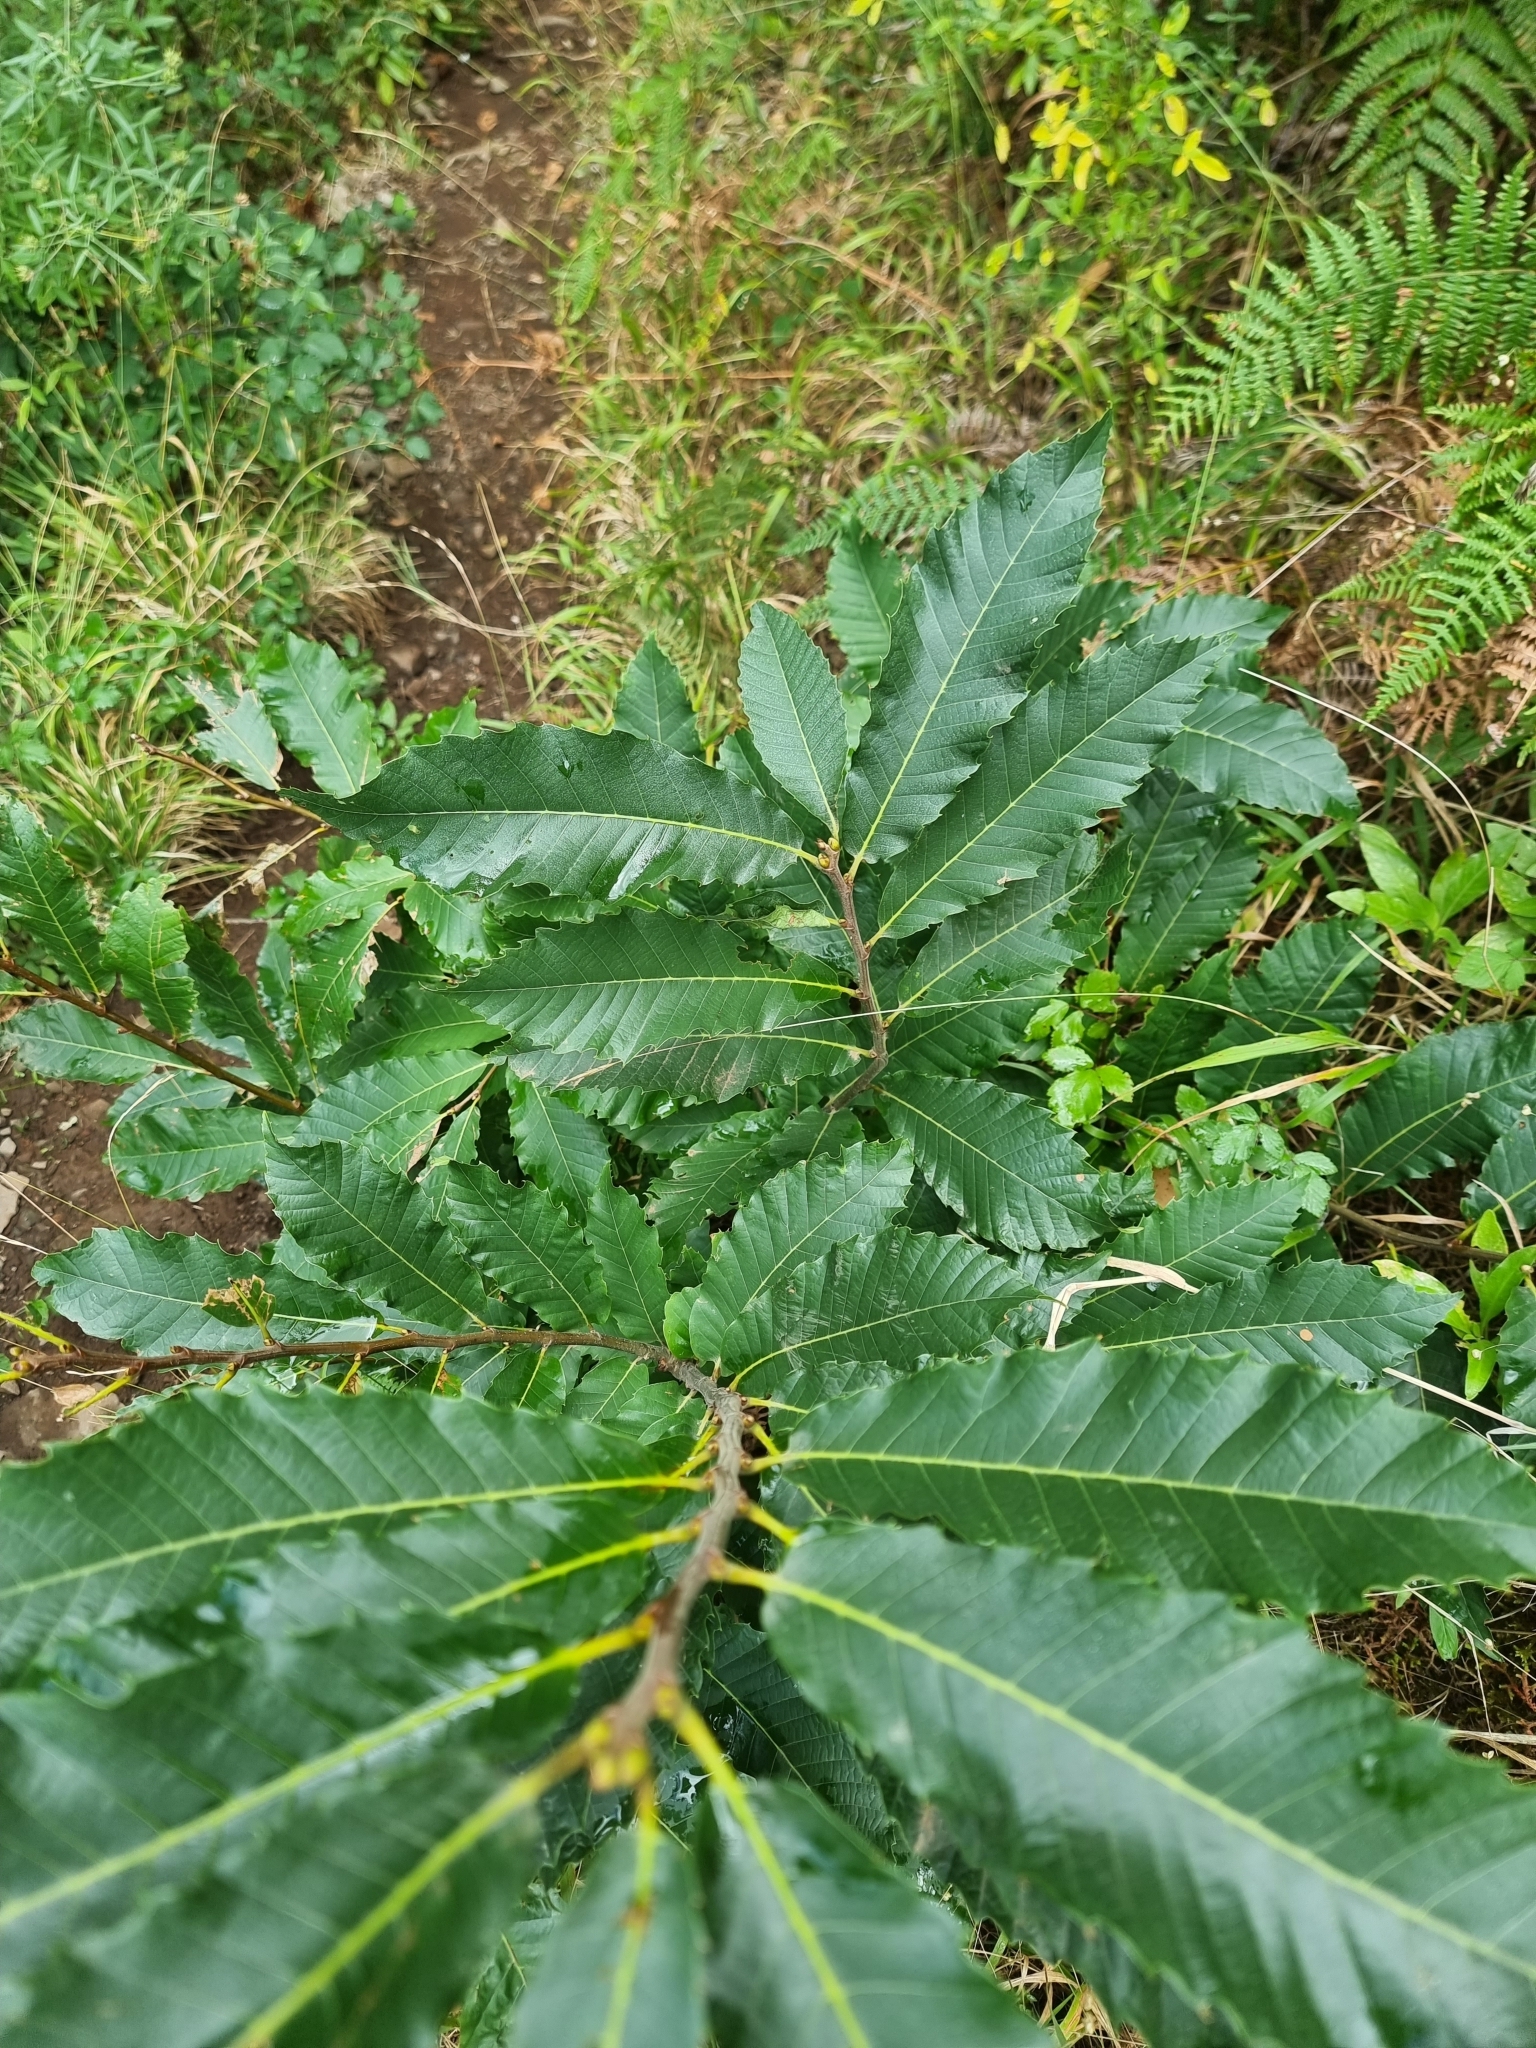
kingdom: Plantae
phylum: Tracheophyta
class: Magnoliopsida
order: Fagales
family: Fagaceae
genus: Castanea
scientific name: Castanea sativa
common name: Sweet chestnut
